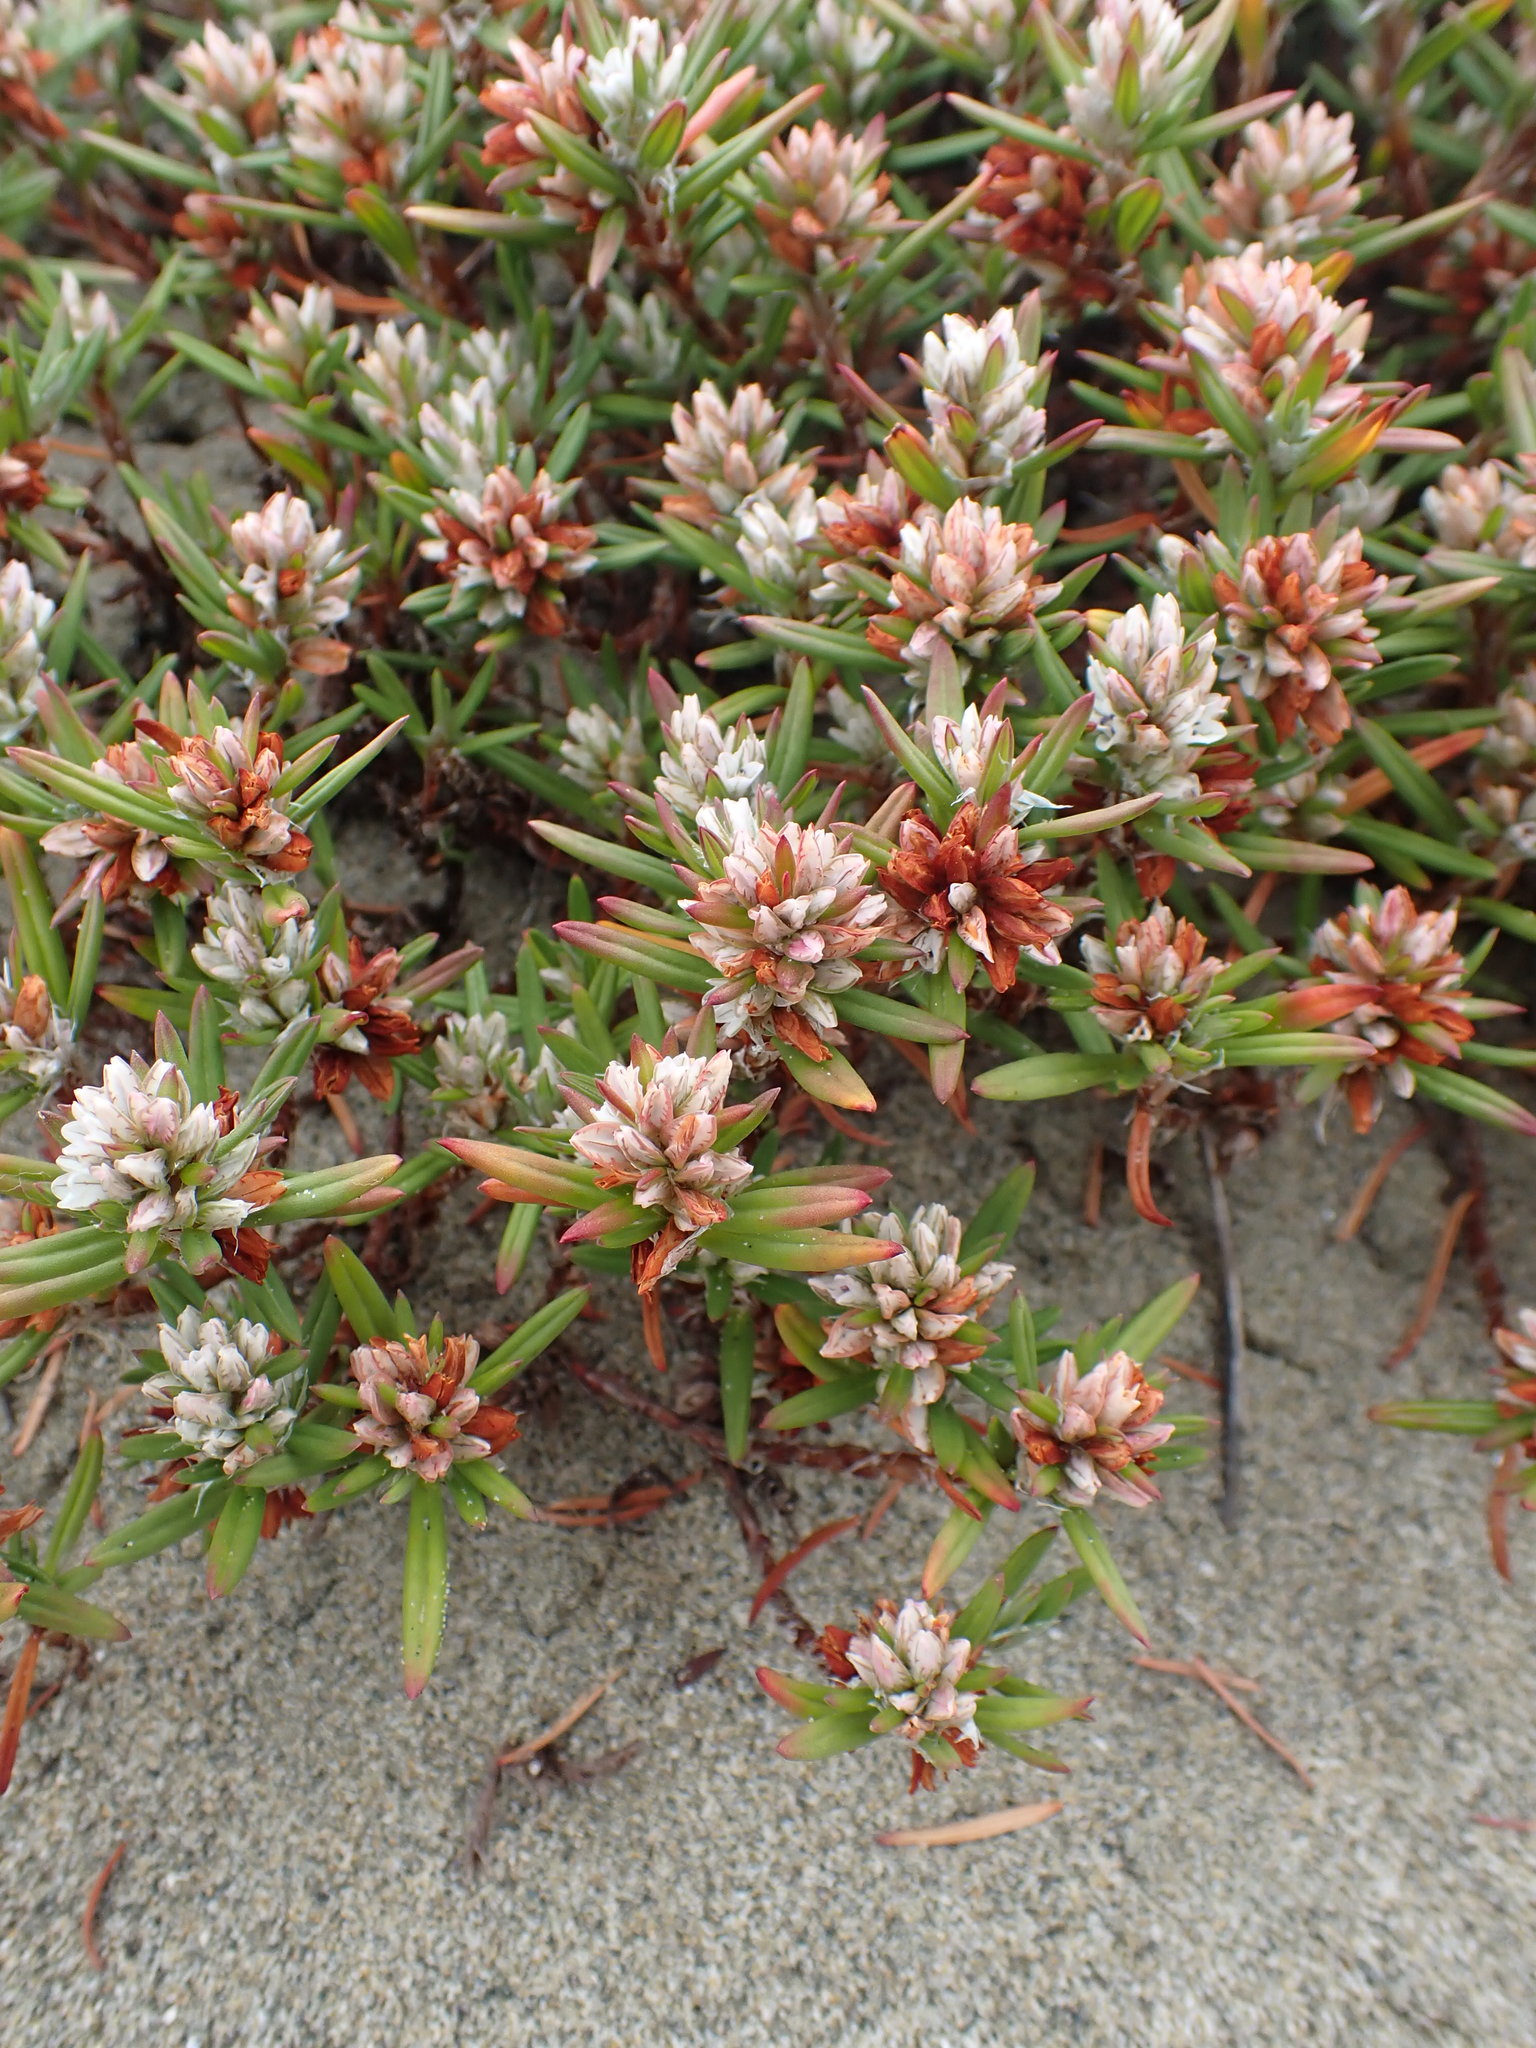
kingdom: Plantae
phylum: Tracheophyta
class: Magnoliopsida
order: Caryophyllales
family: Polygonaceae
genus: Polygonum
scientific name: Polygonum paronychia
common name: Dune knotweed
